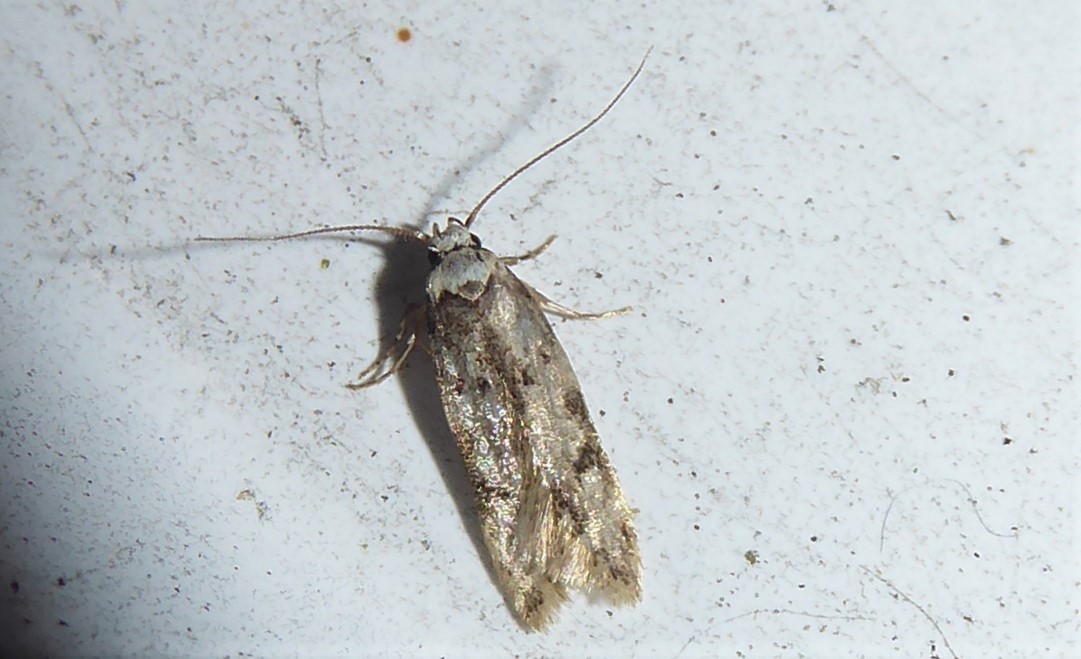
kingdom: Animalia
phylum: Arthropoda
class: Insecta
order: Lepidoptera
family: Oecophoridae
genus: Endrosis
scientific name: Endrosis sarcitrella
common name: White-shouldered house moth
